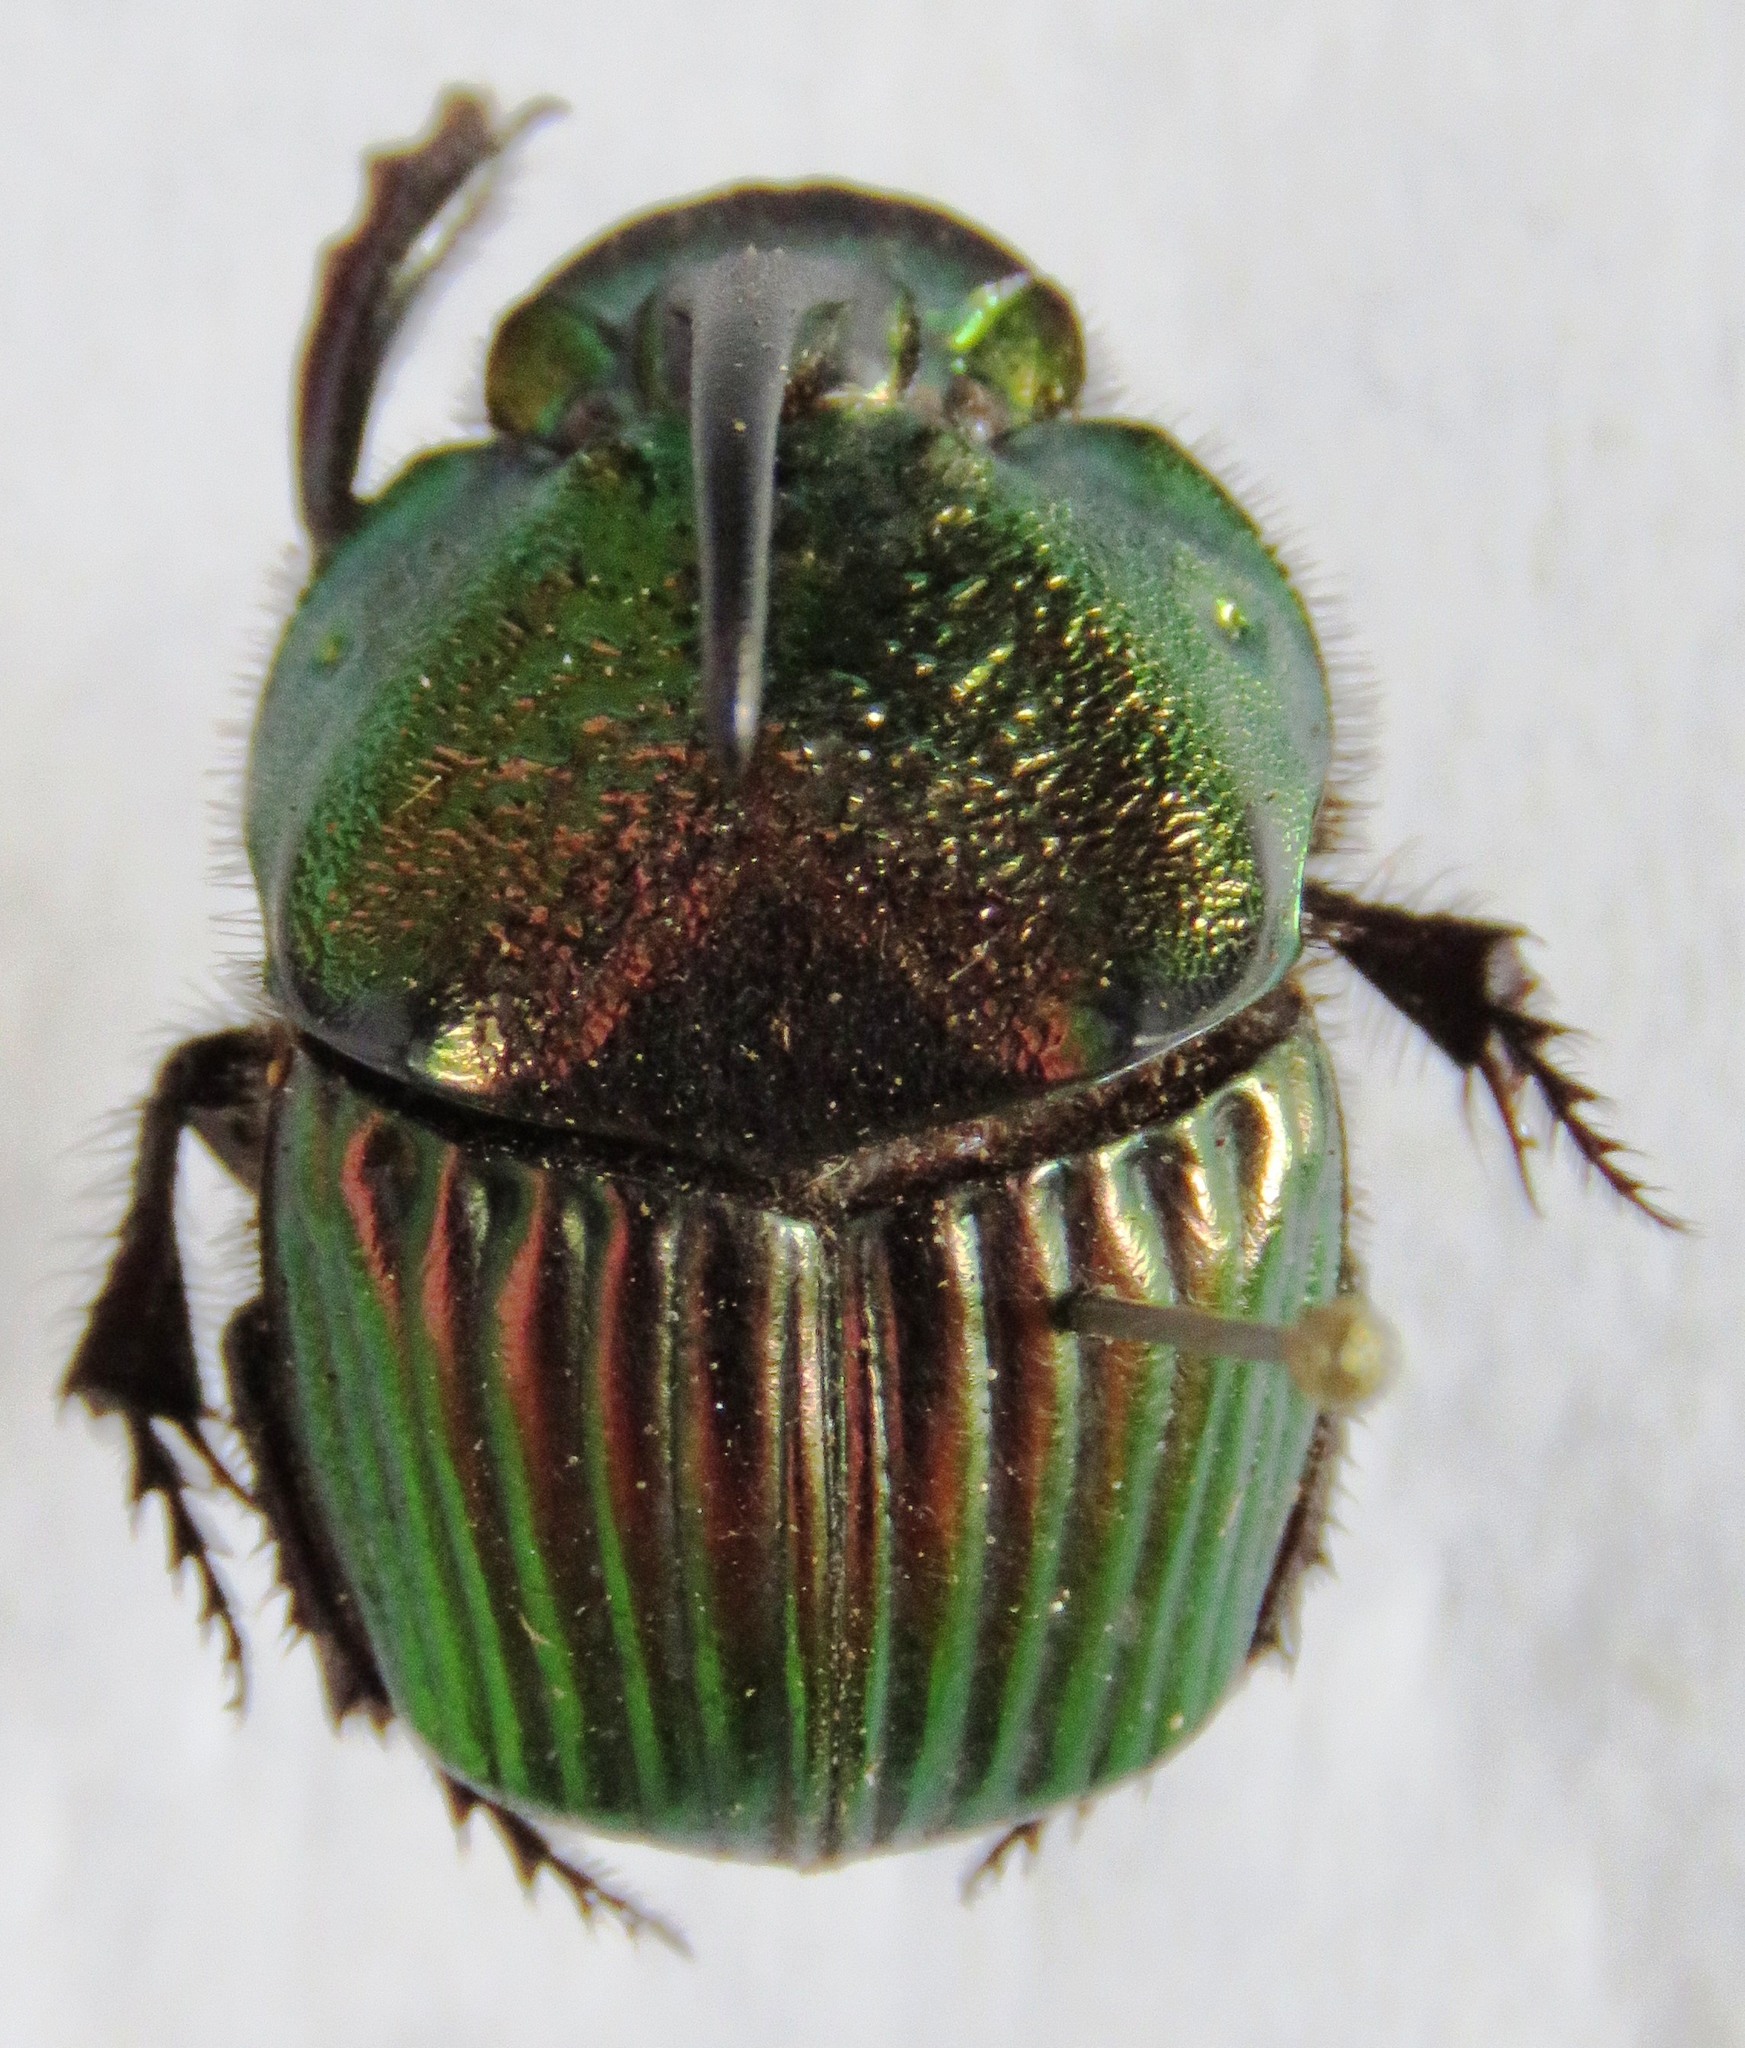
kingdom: Animalia
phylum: Arthropoda
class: Insecta
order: Coleoptera
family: Scarabaeidae
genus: Phanaeus
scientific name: Phanaeus wagneri
